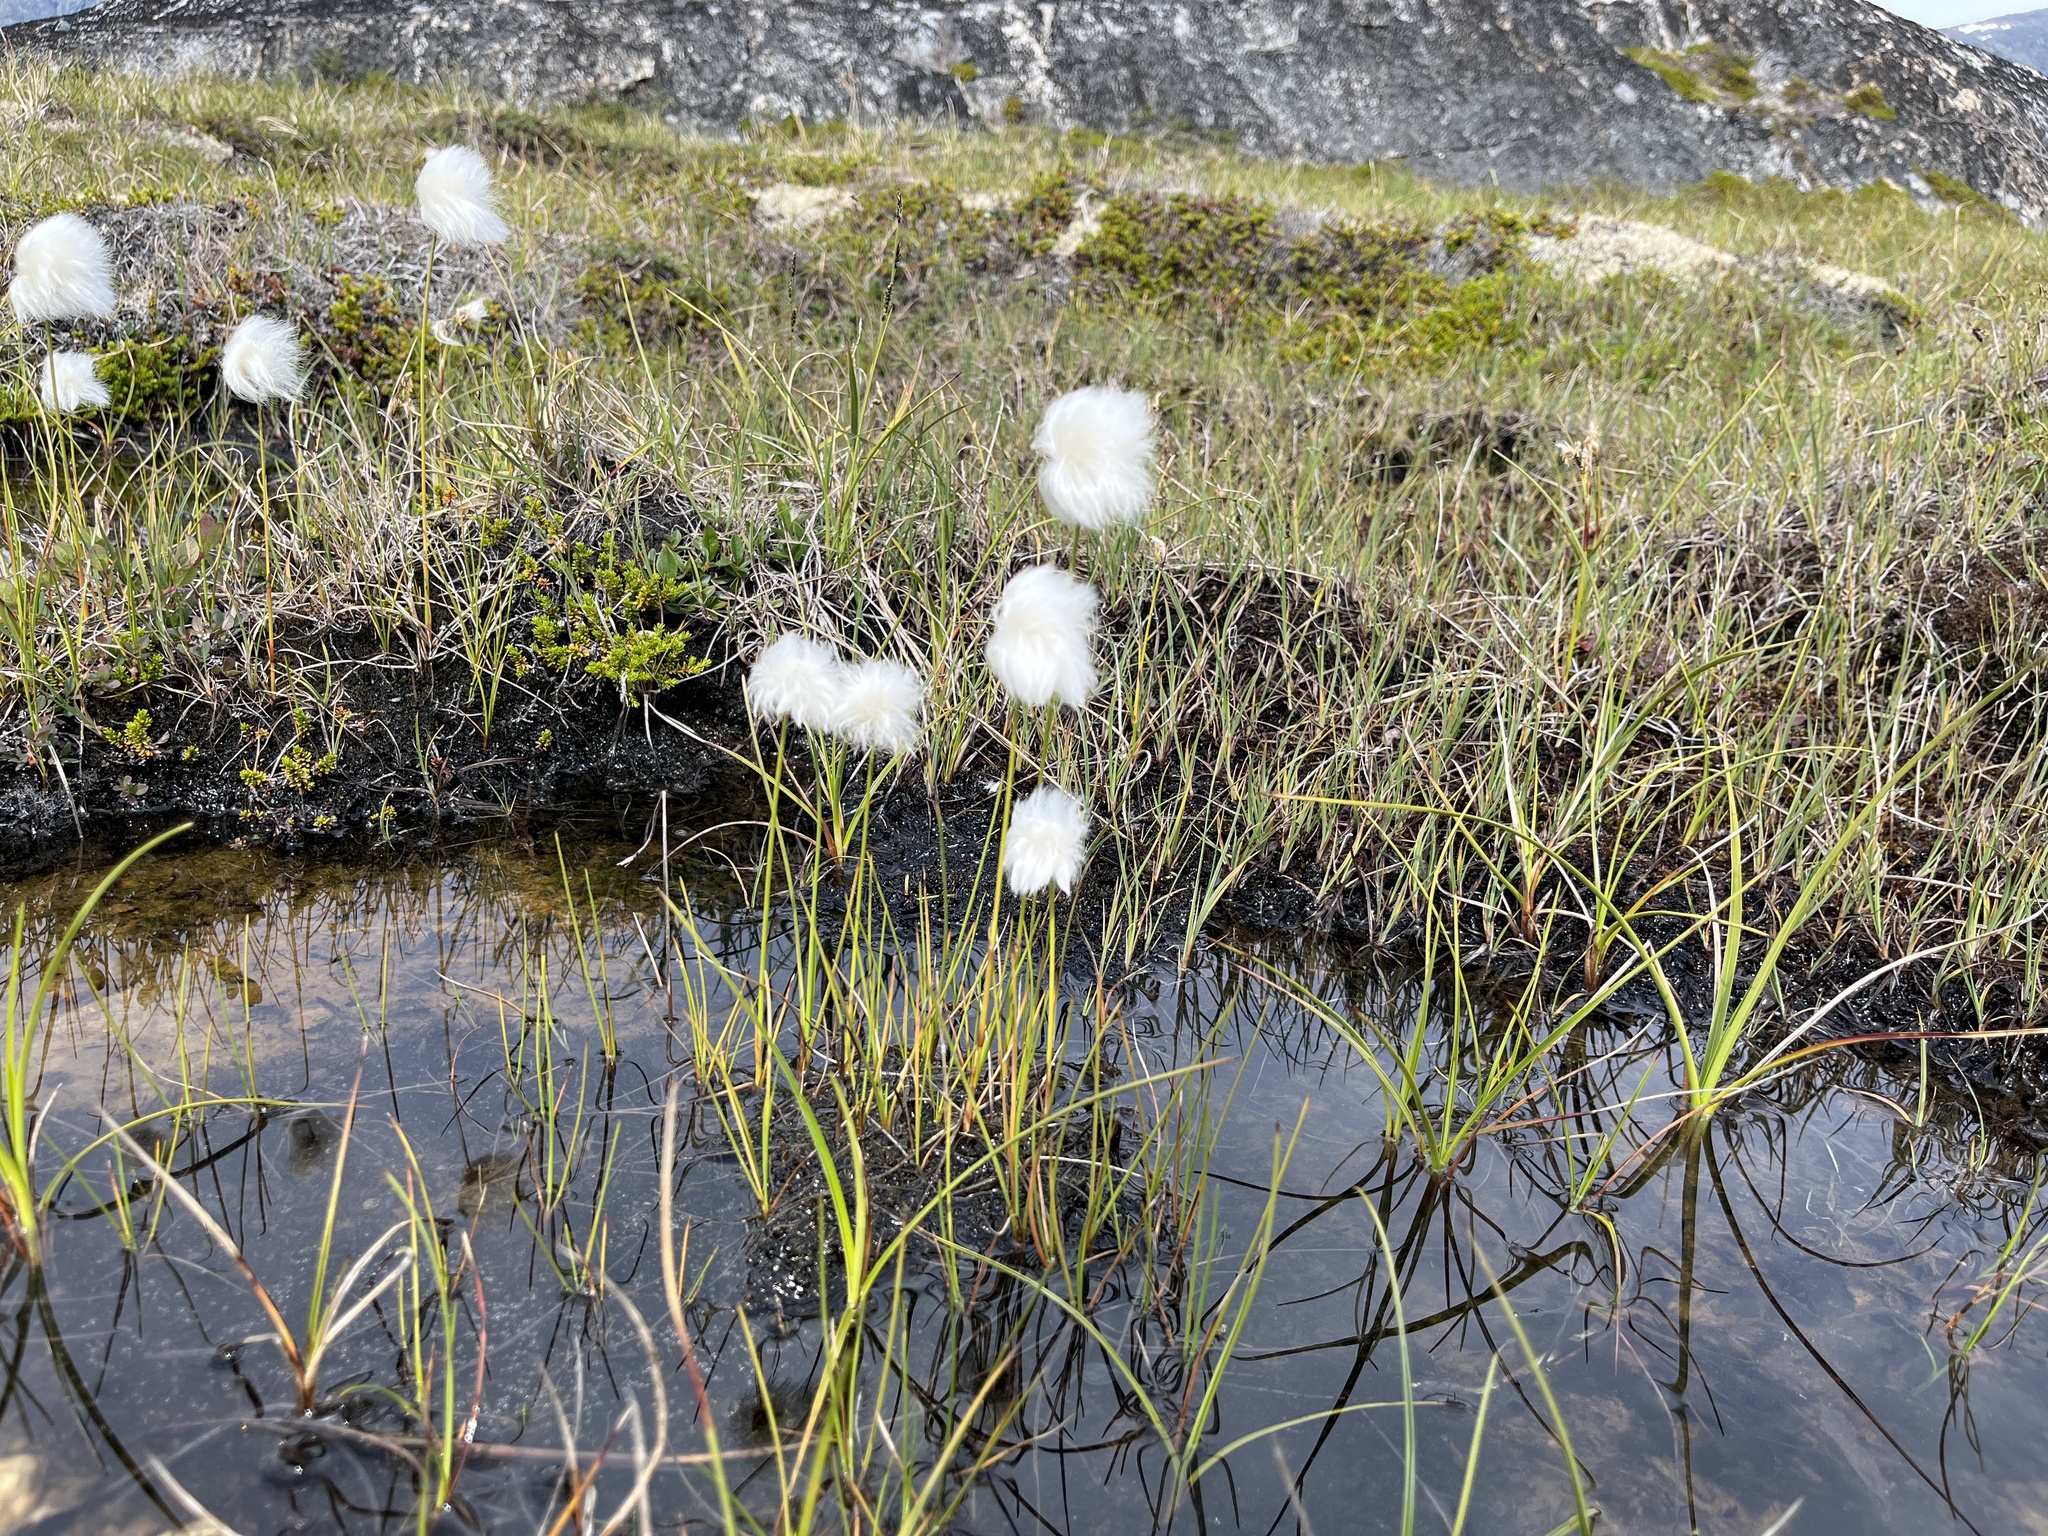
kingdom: Plantae
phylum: Tracheophyta
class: Liliopsida
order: Poales
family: Cyperaceae
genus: Eriophorum
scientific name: Eriophorum scheuchzeri
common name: Scheuchzer's cottongrass
